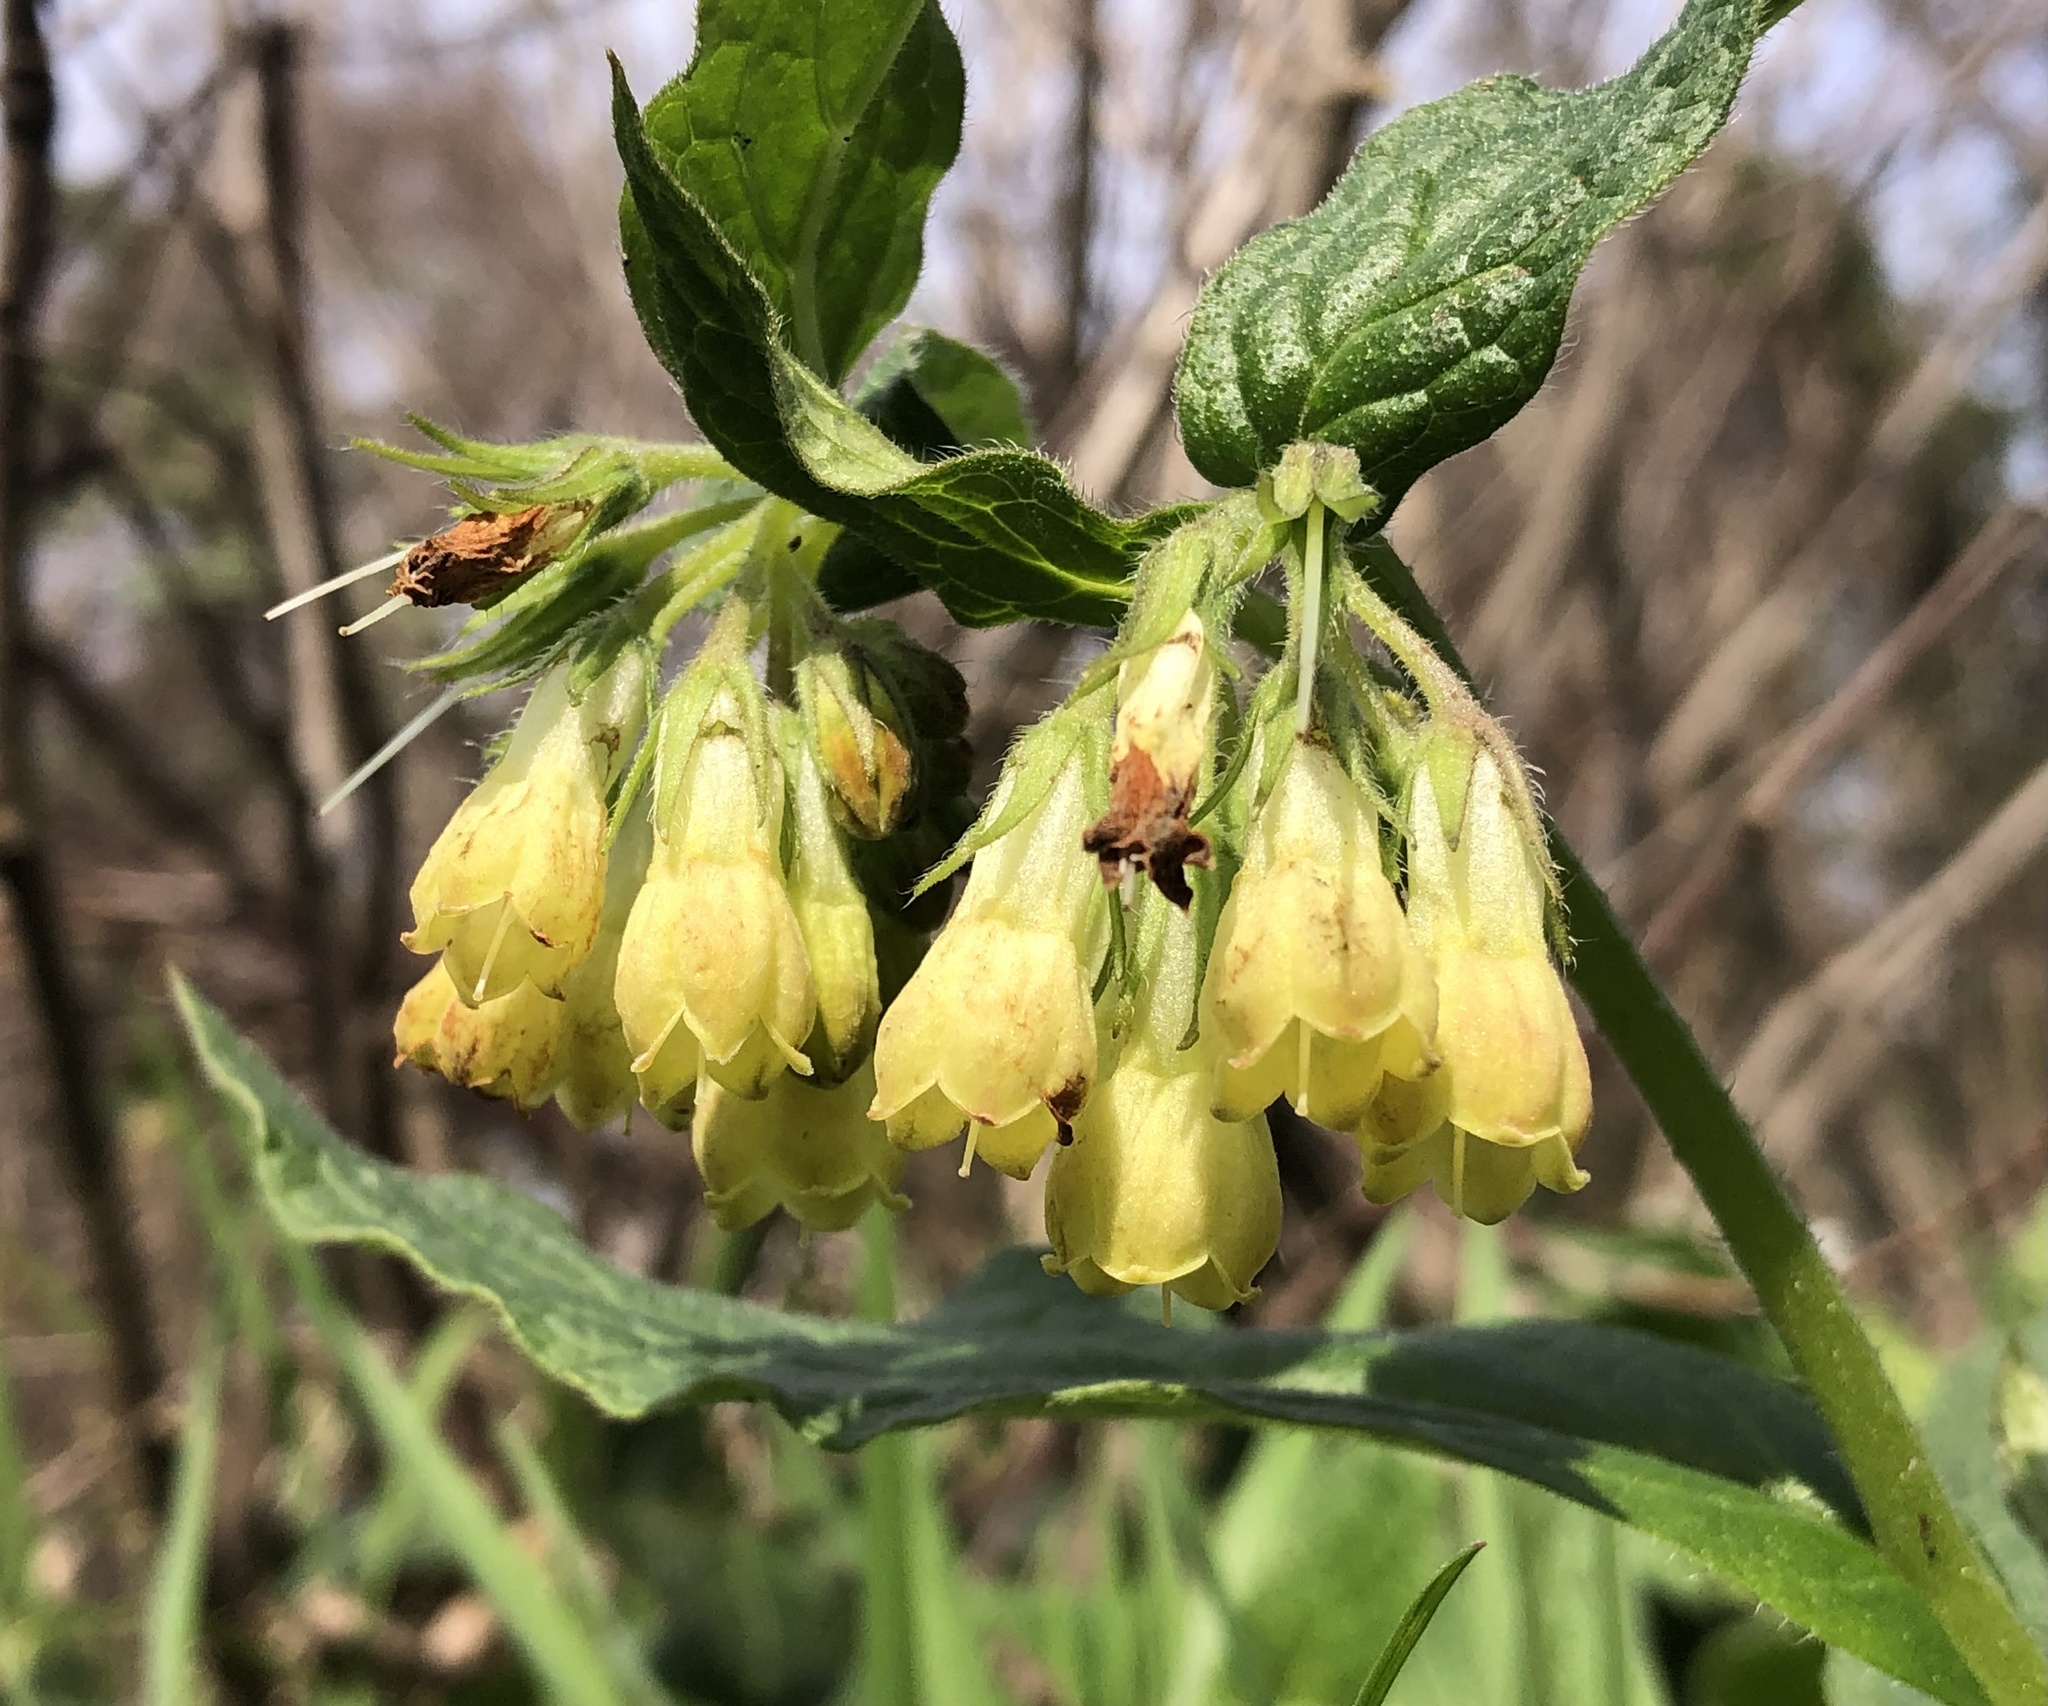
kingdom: Plantae
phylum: Tracheophyta
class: Magnoliopsida
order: Boraginales
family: Boraginaceae
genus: Symphytum
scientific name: Symphytum tuberosum
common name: Tuberous comfrey
